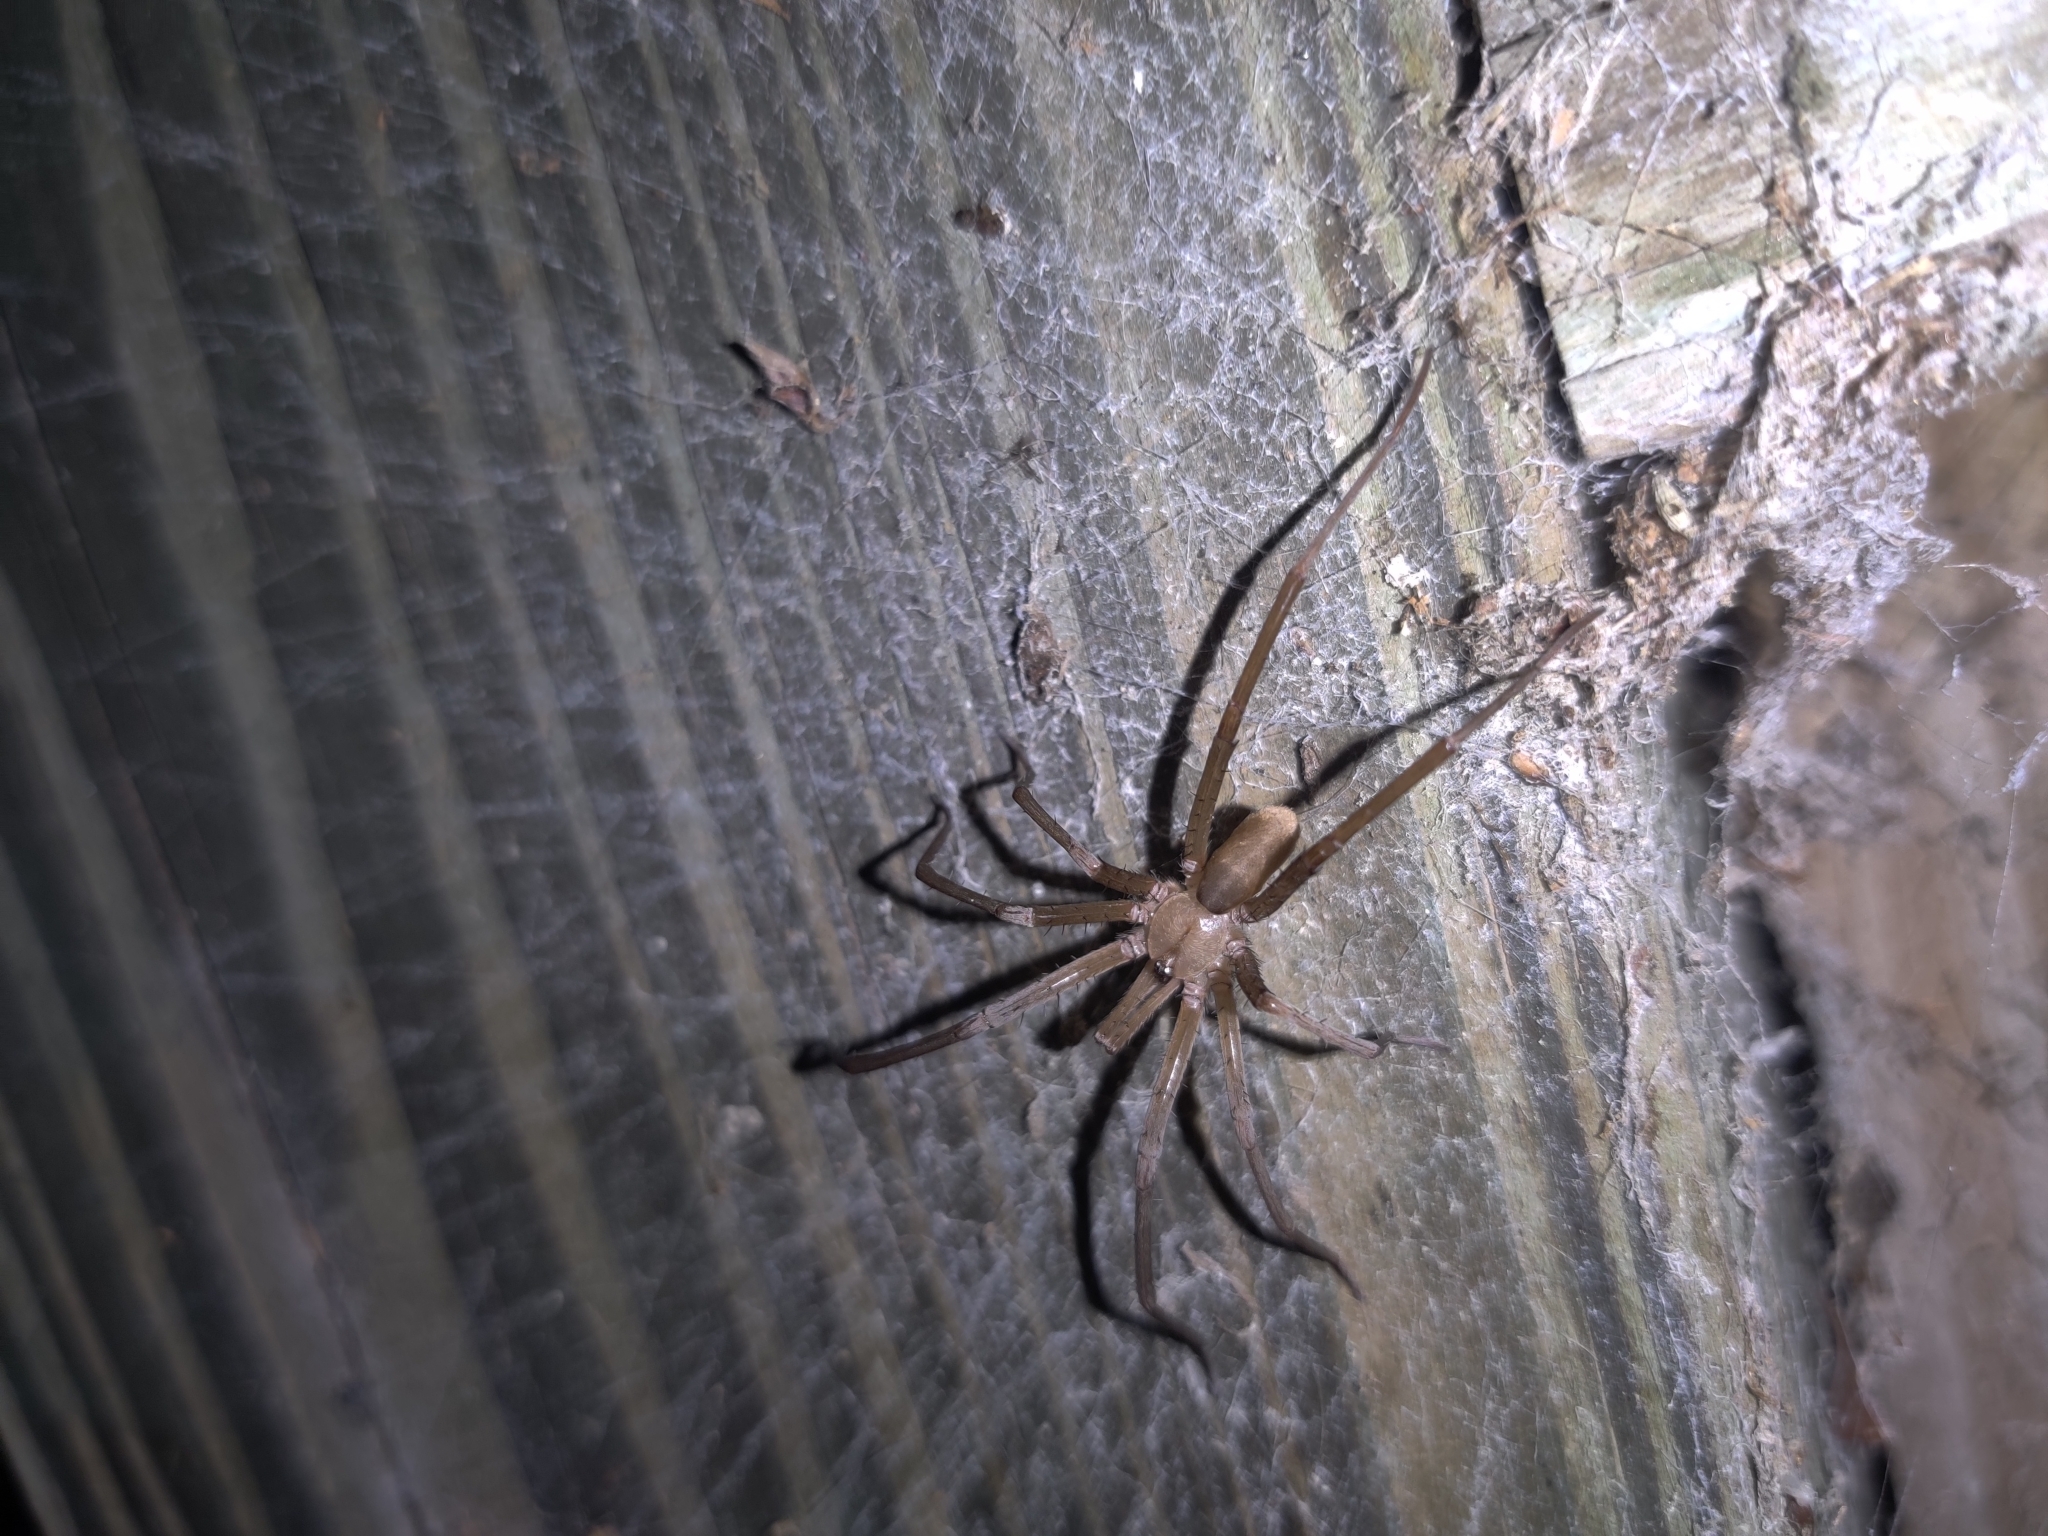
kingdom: Animalia
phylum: Arthropoda
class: Arachnida
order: Araneae
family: Filistatidae
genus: Kukulcania
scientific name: Kukulcania hibernalis
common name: Crevice weaver
